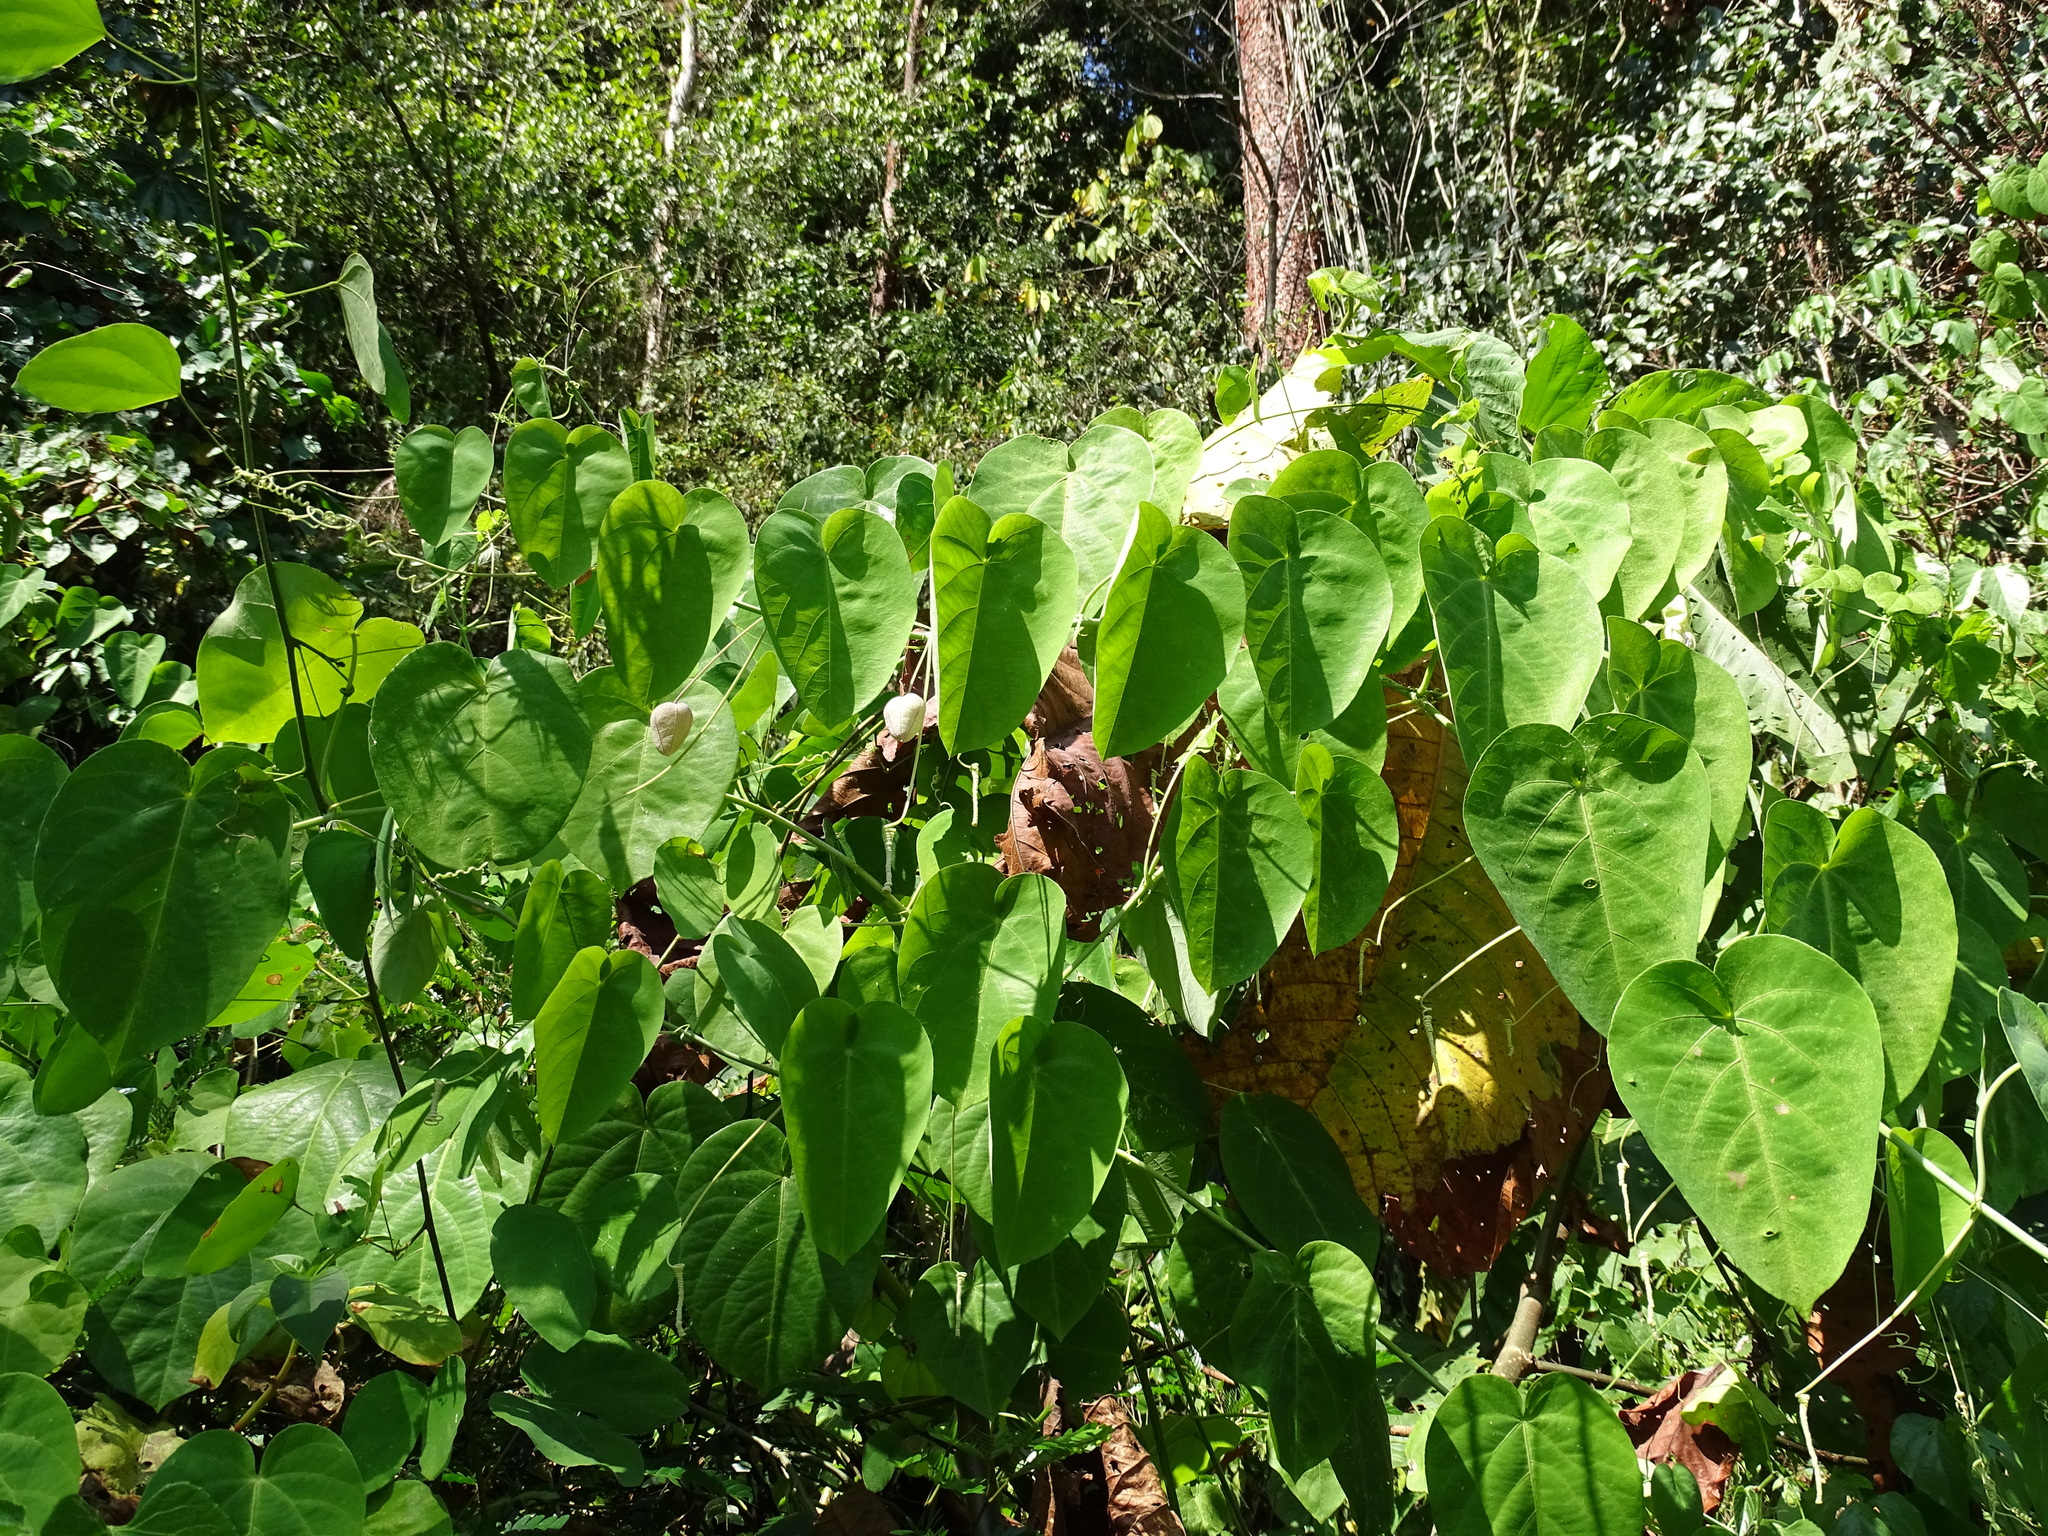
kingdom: Plantae
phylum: Tracheophyta
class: Magnoliopsida
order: Malpighiales
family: Passifloraceae
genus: Passiflora
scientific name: Passiflora seemannii
